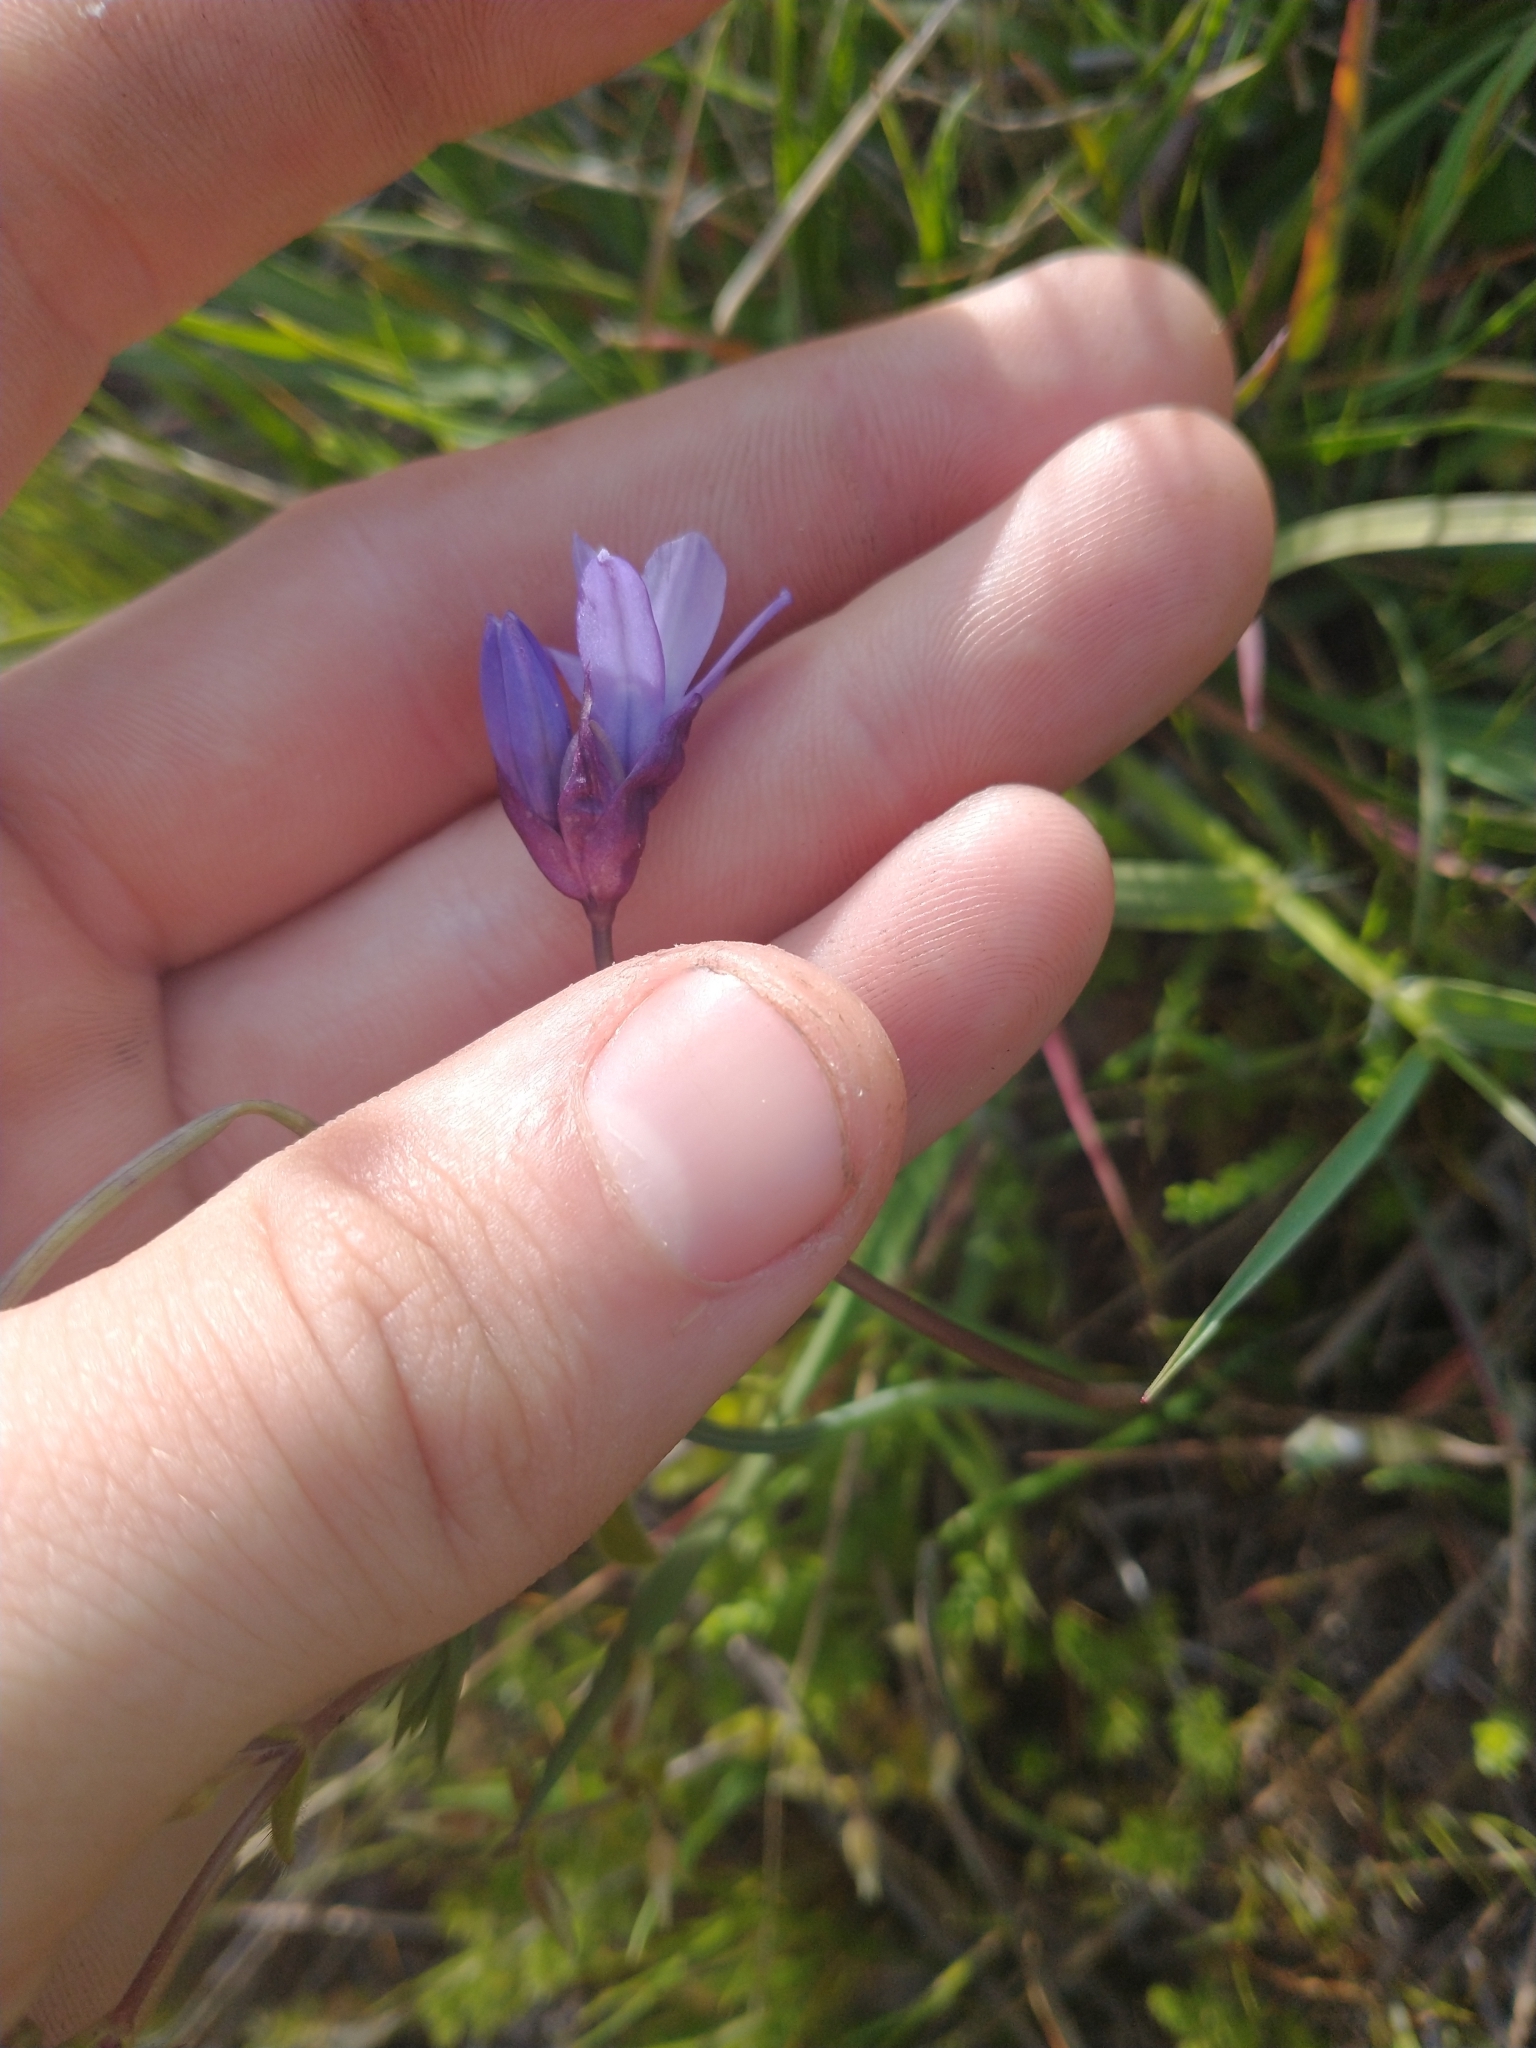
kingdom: Plantae
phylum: Tracheophyta
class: Liliopsida
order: Asparagales
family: Asparagaceae
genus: Dipterostemon
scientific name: Dipterostemon capitatus
